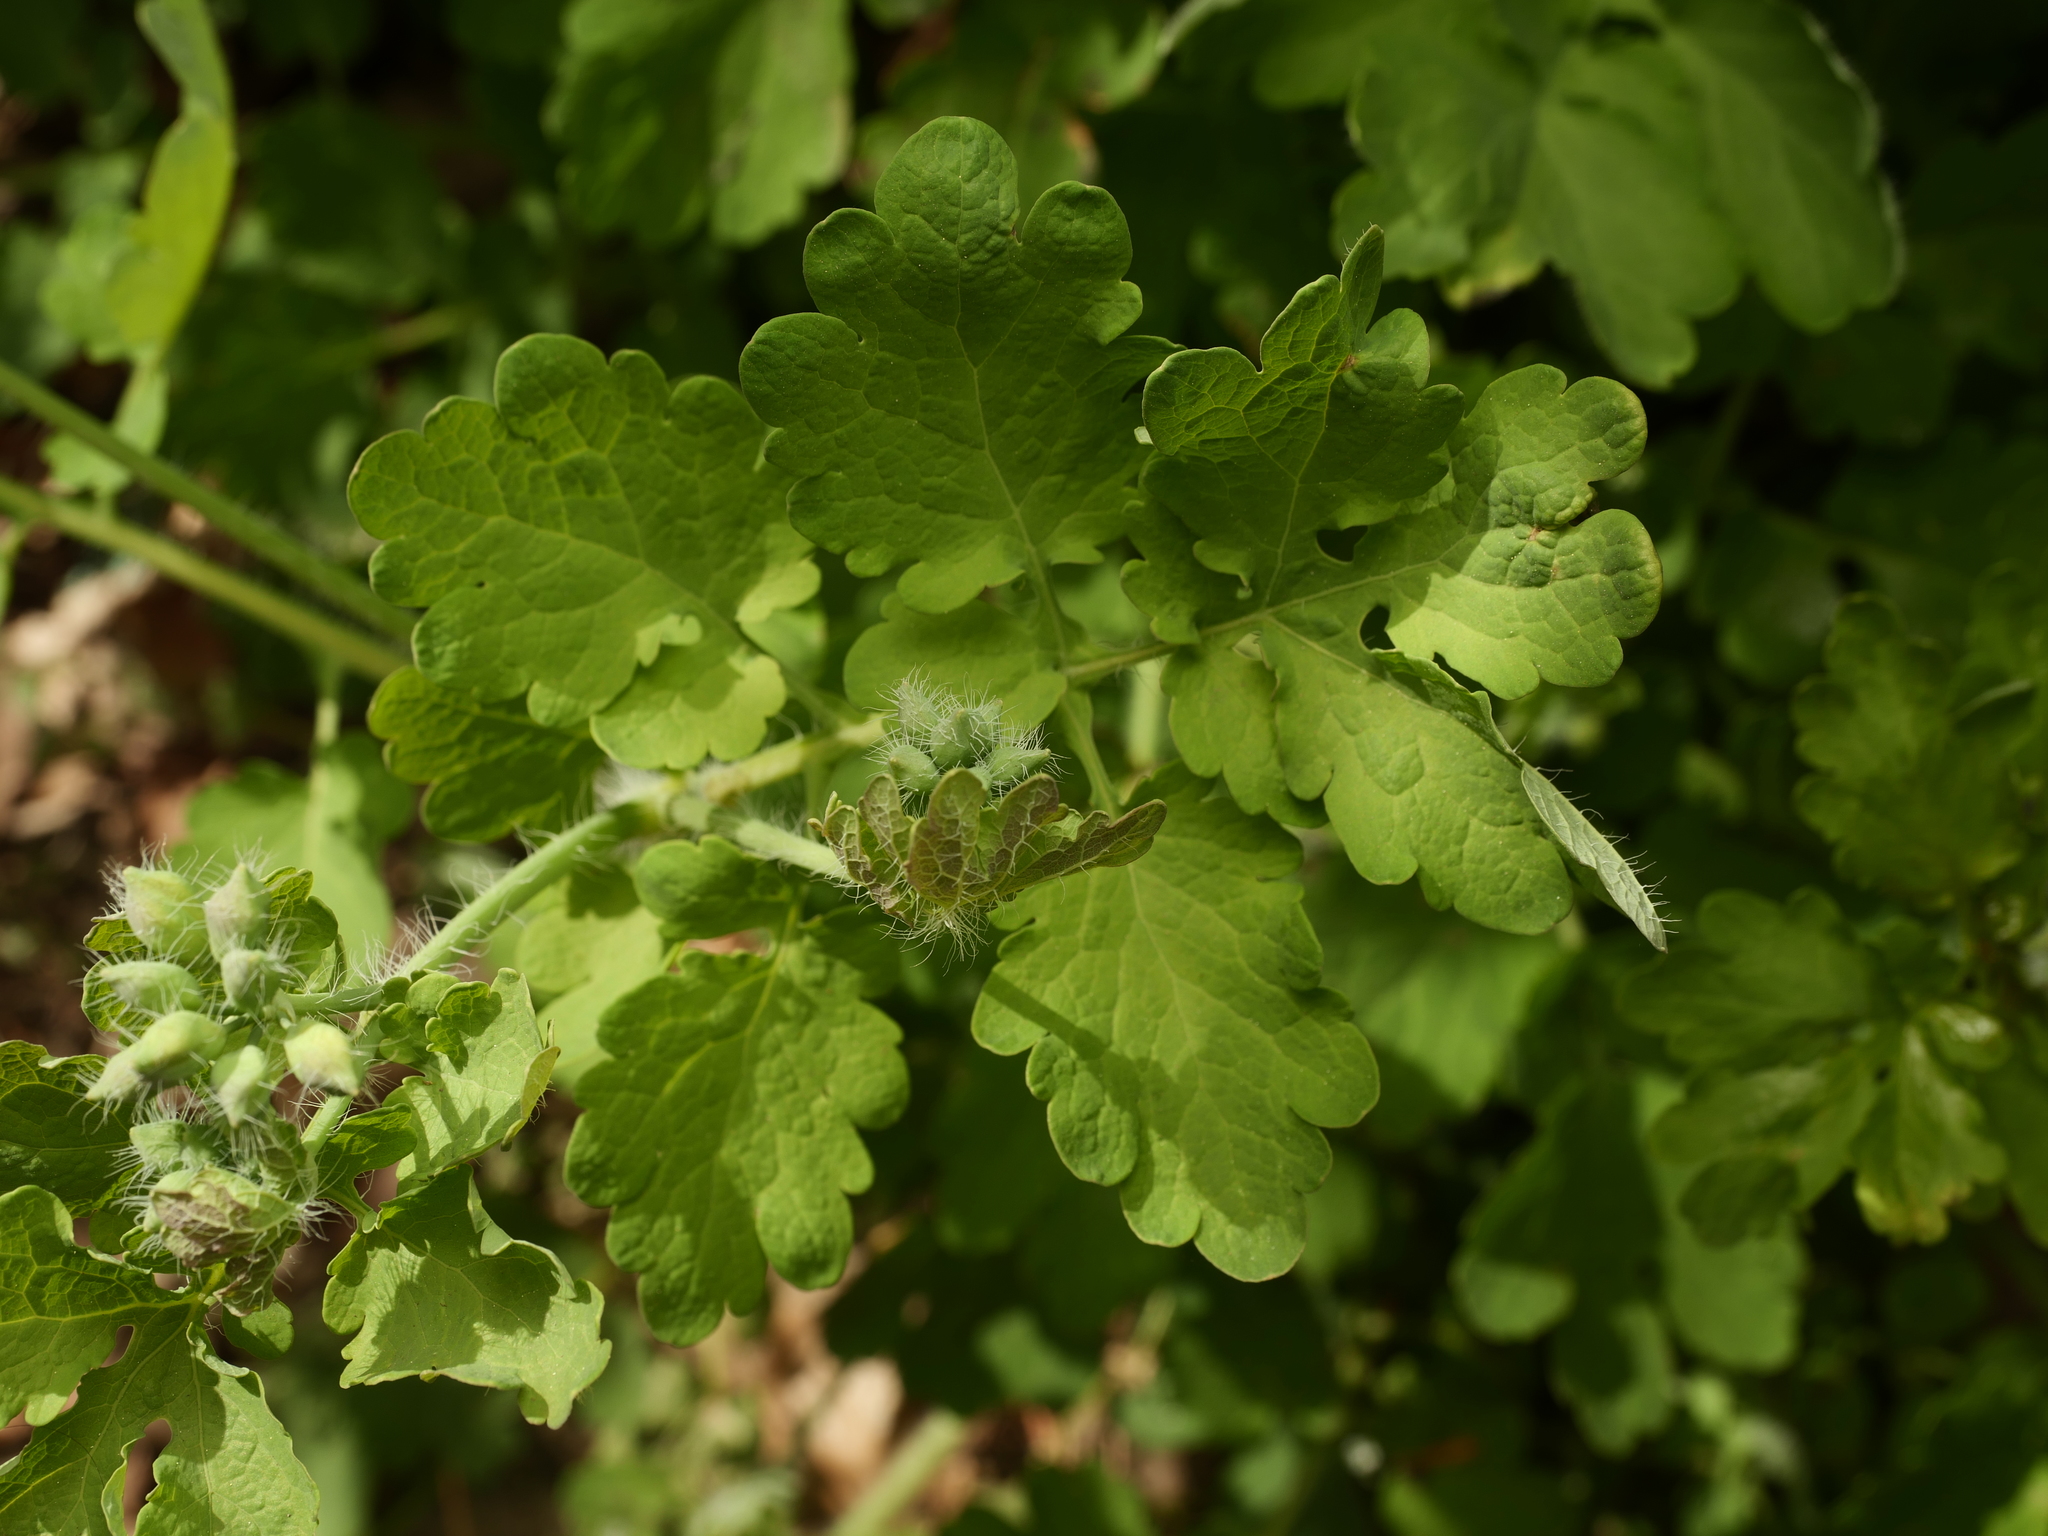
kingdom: Plantae
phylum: Tracheophyta
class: Magnoliopsida
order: Ranunculales
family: Papaveraceae
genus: Chelidonium
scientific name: Chelidonium majus
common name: Greater celandine
